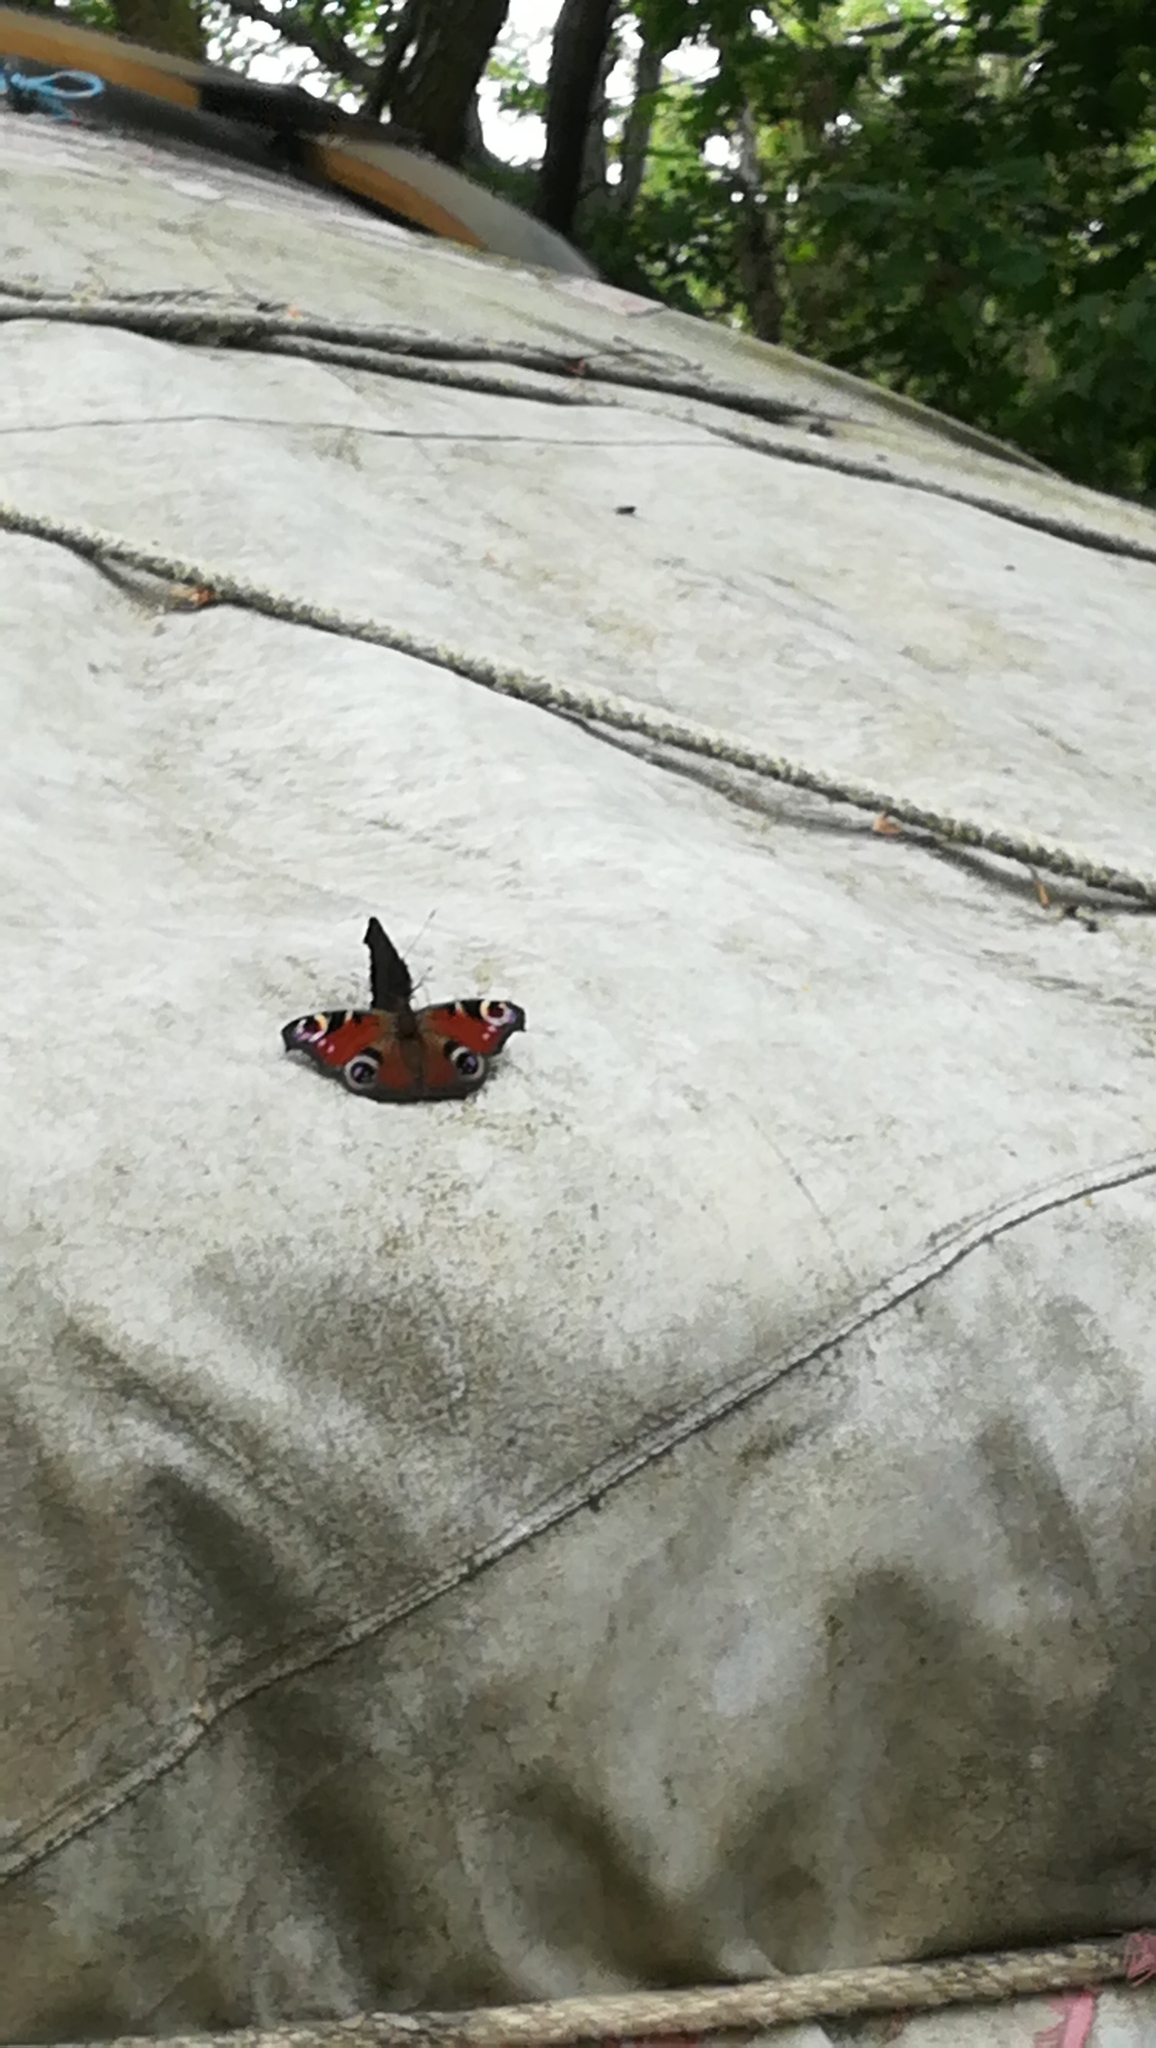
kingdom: Animalia
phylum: Arthropoda
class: Insecta
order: Lepidoptera
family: Nymphalidae
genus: Aglais
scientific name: Aglais io
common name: Peacock
